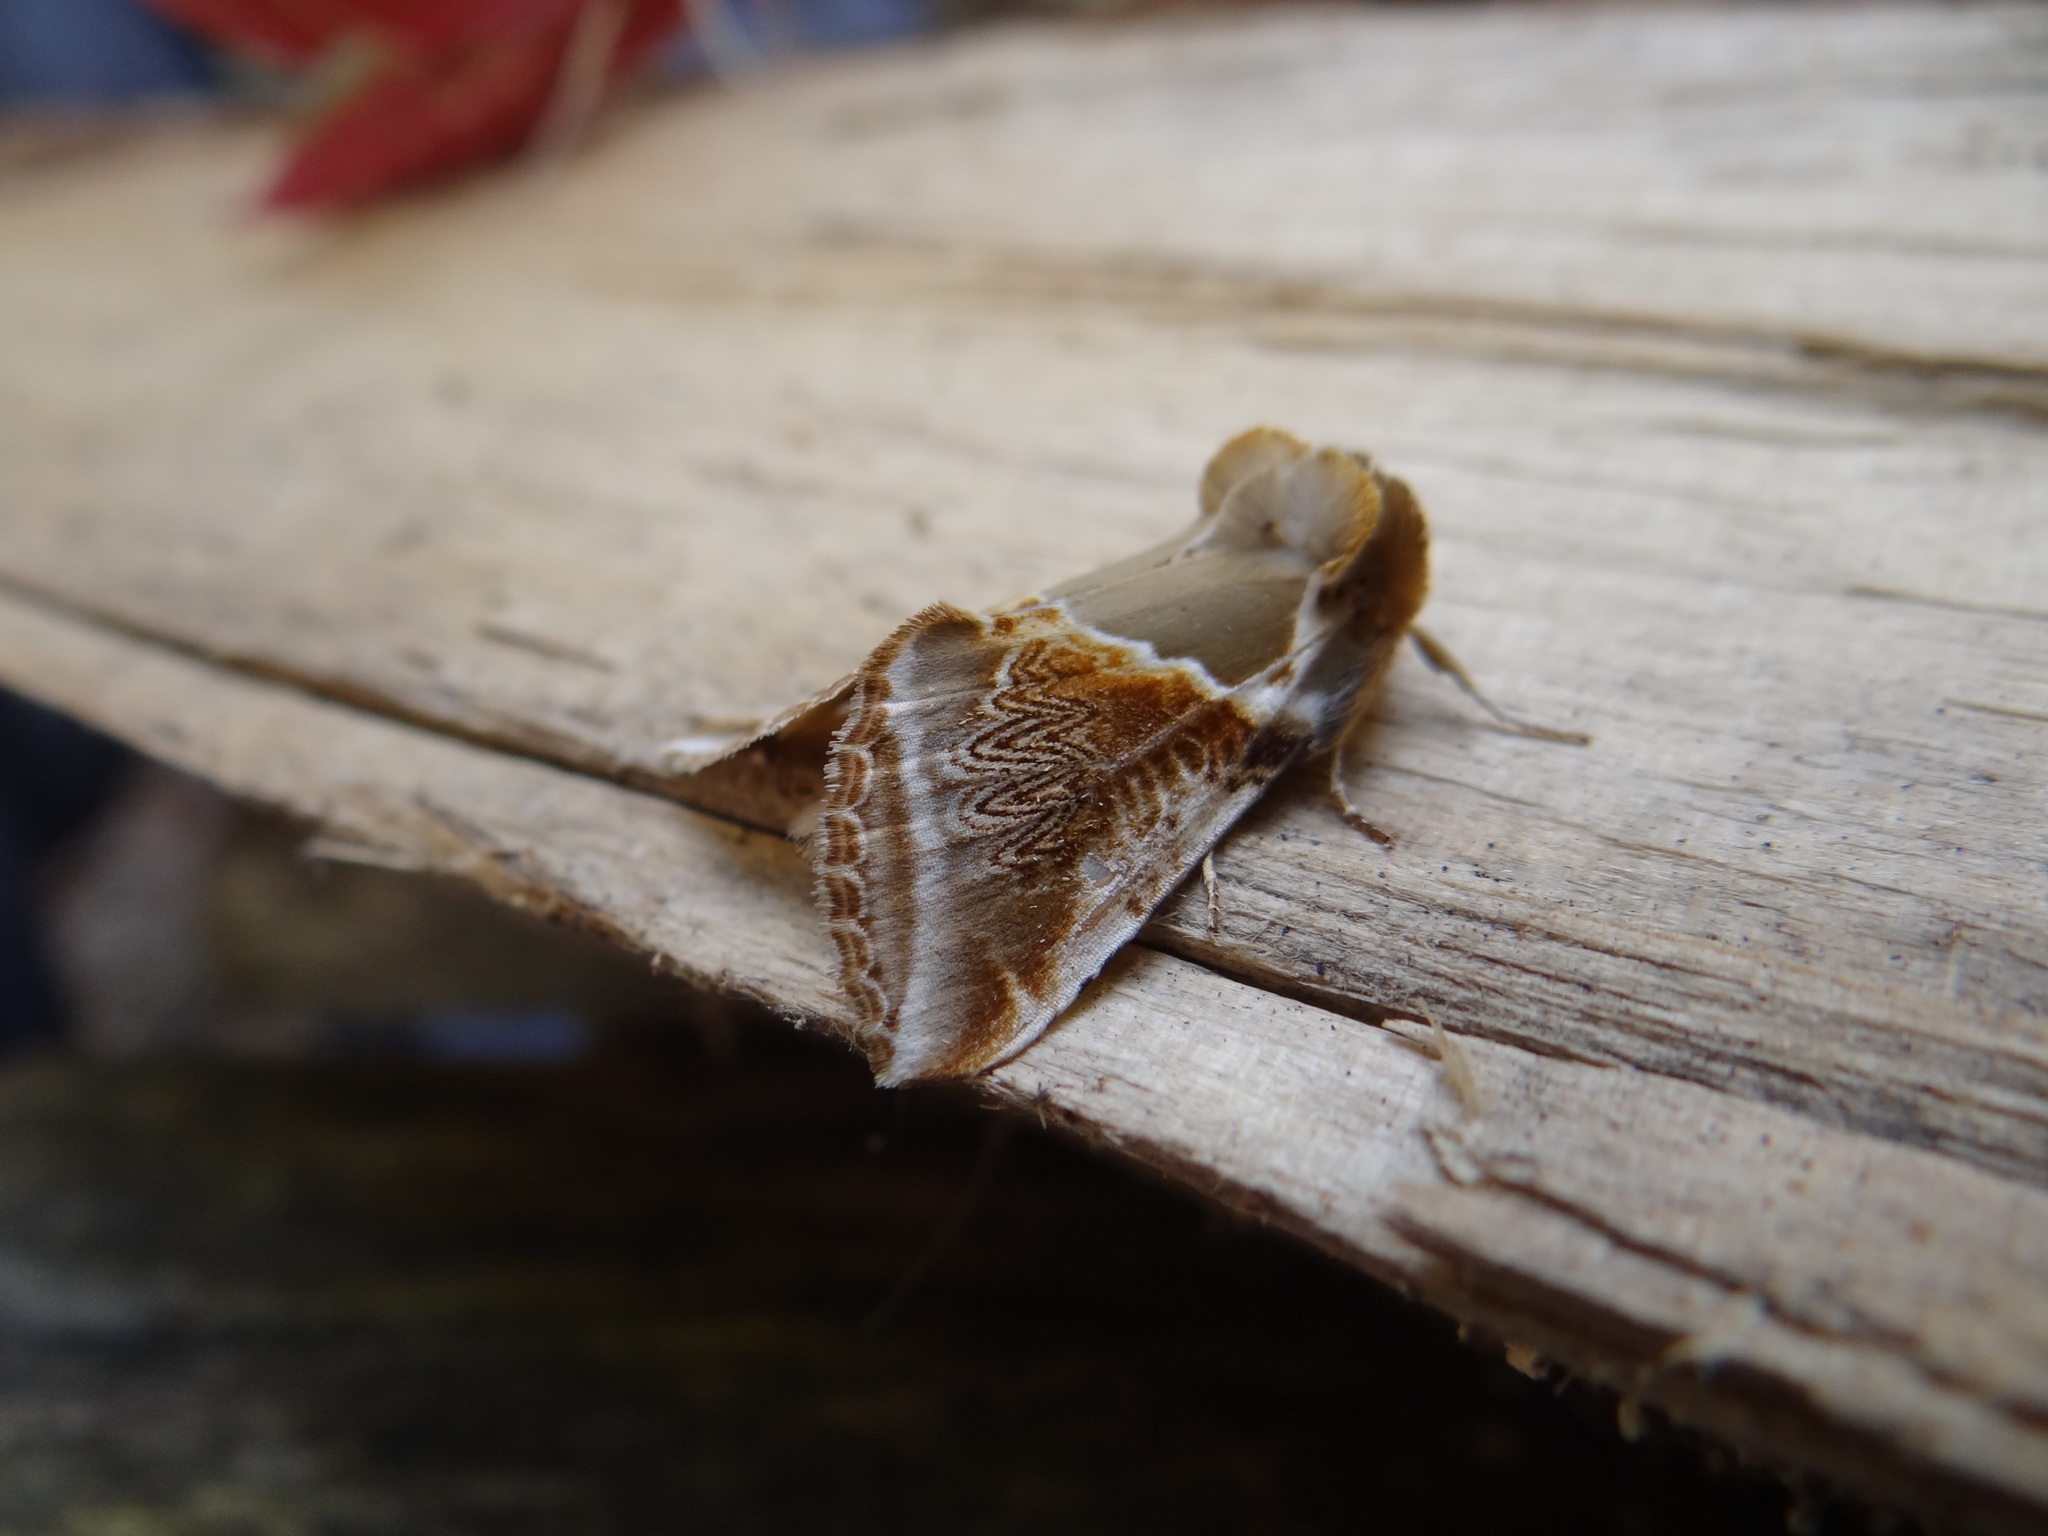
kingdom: Animalia
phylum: Arthropoda
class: Insecta
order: Lepidoptera
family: Drepanidae
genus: Habrosyne
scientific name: Habrosyne pyritoides
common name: Buff arches
